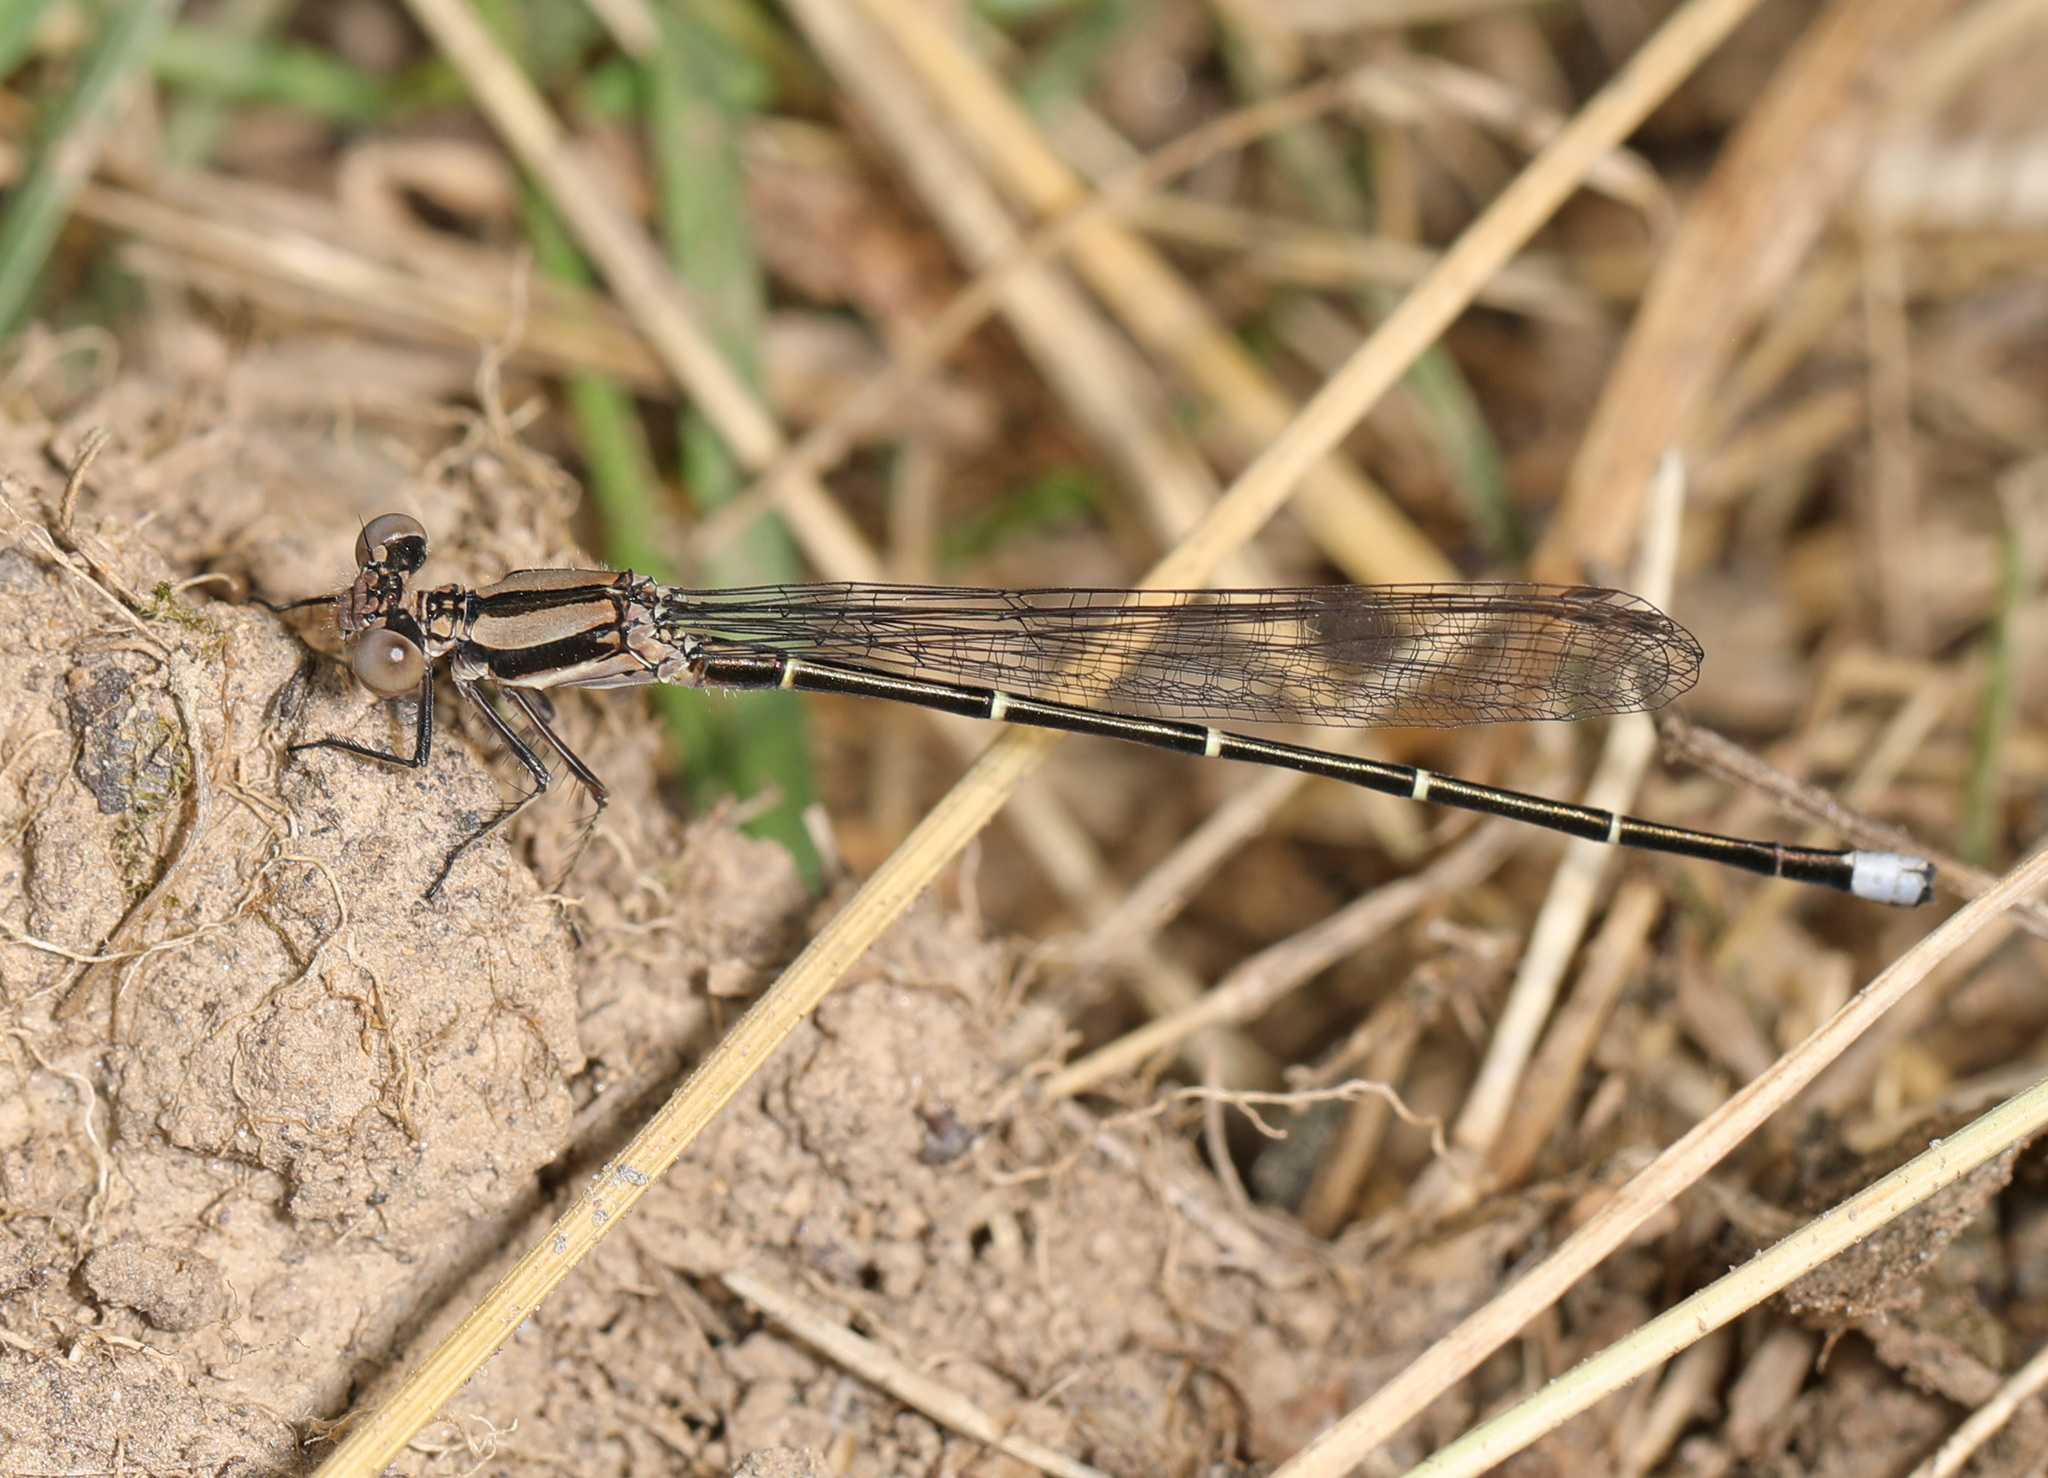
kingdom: Animalia
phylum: Arthropoda
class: Insecta
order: Odonata
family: Coenagrionidae
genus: Argia
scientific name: Argia tibialis
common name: Blue-tipped dancer
